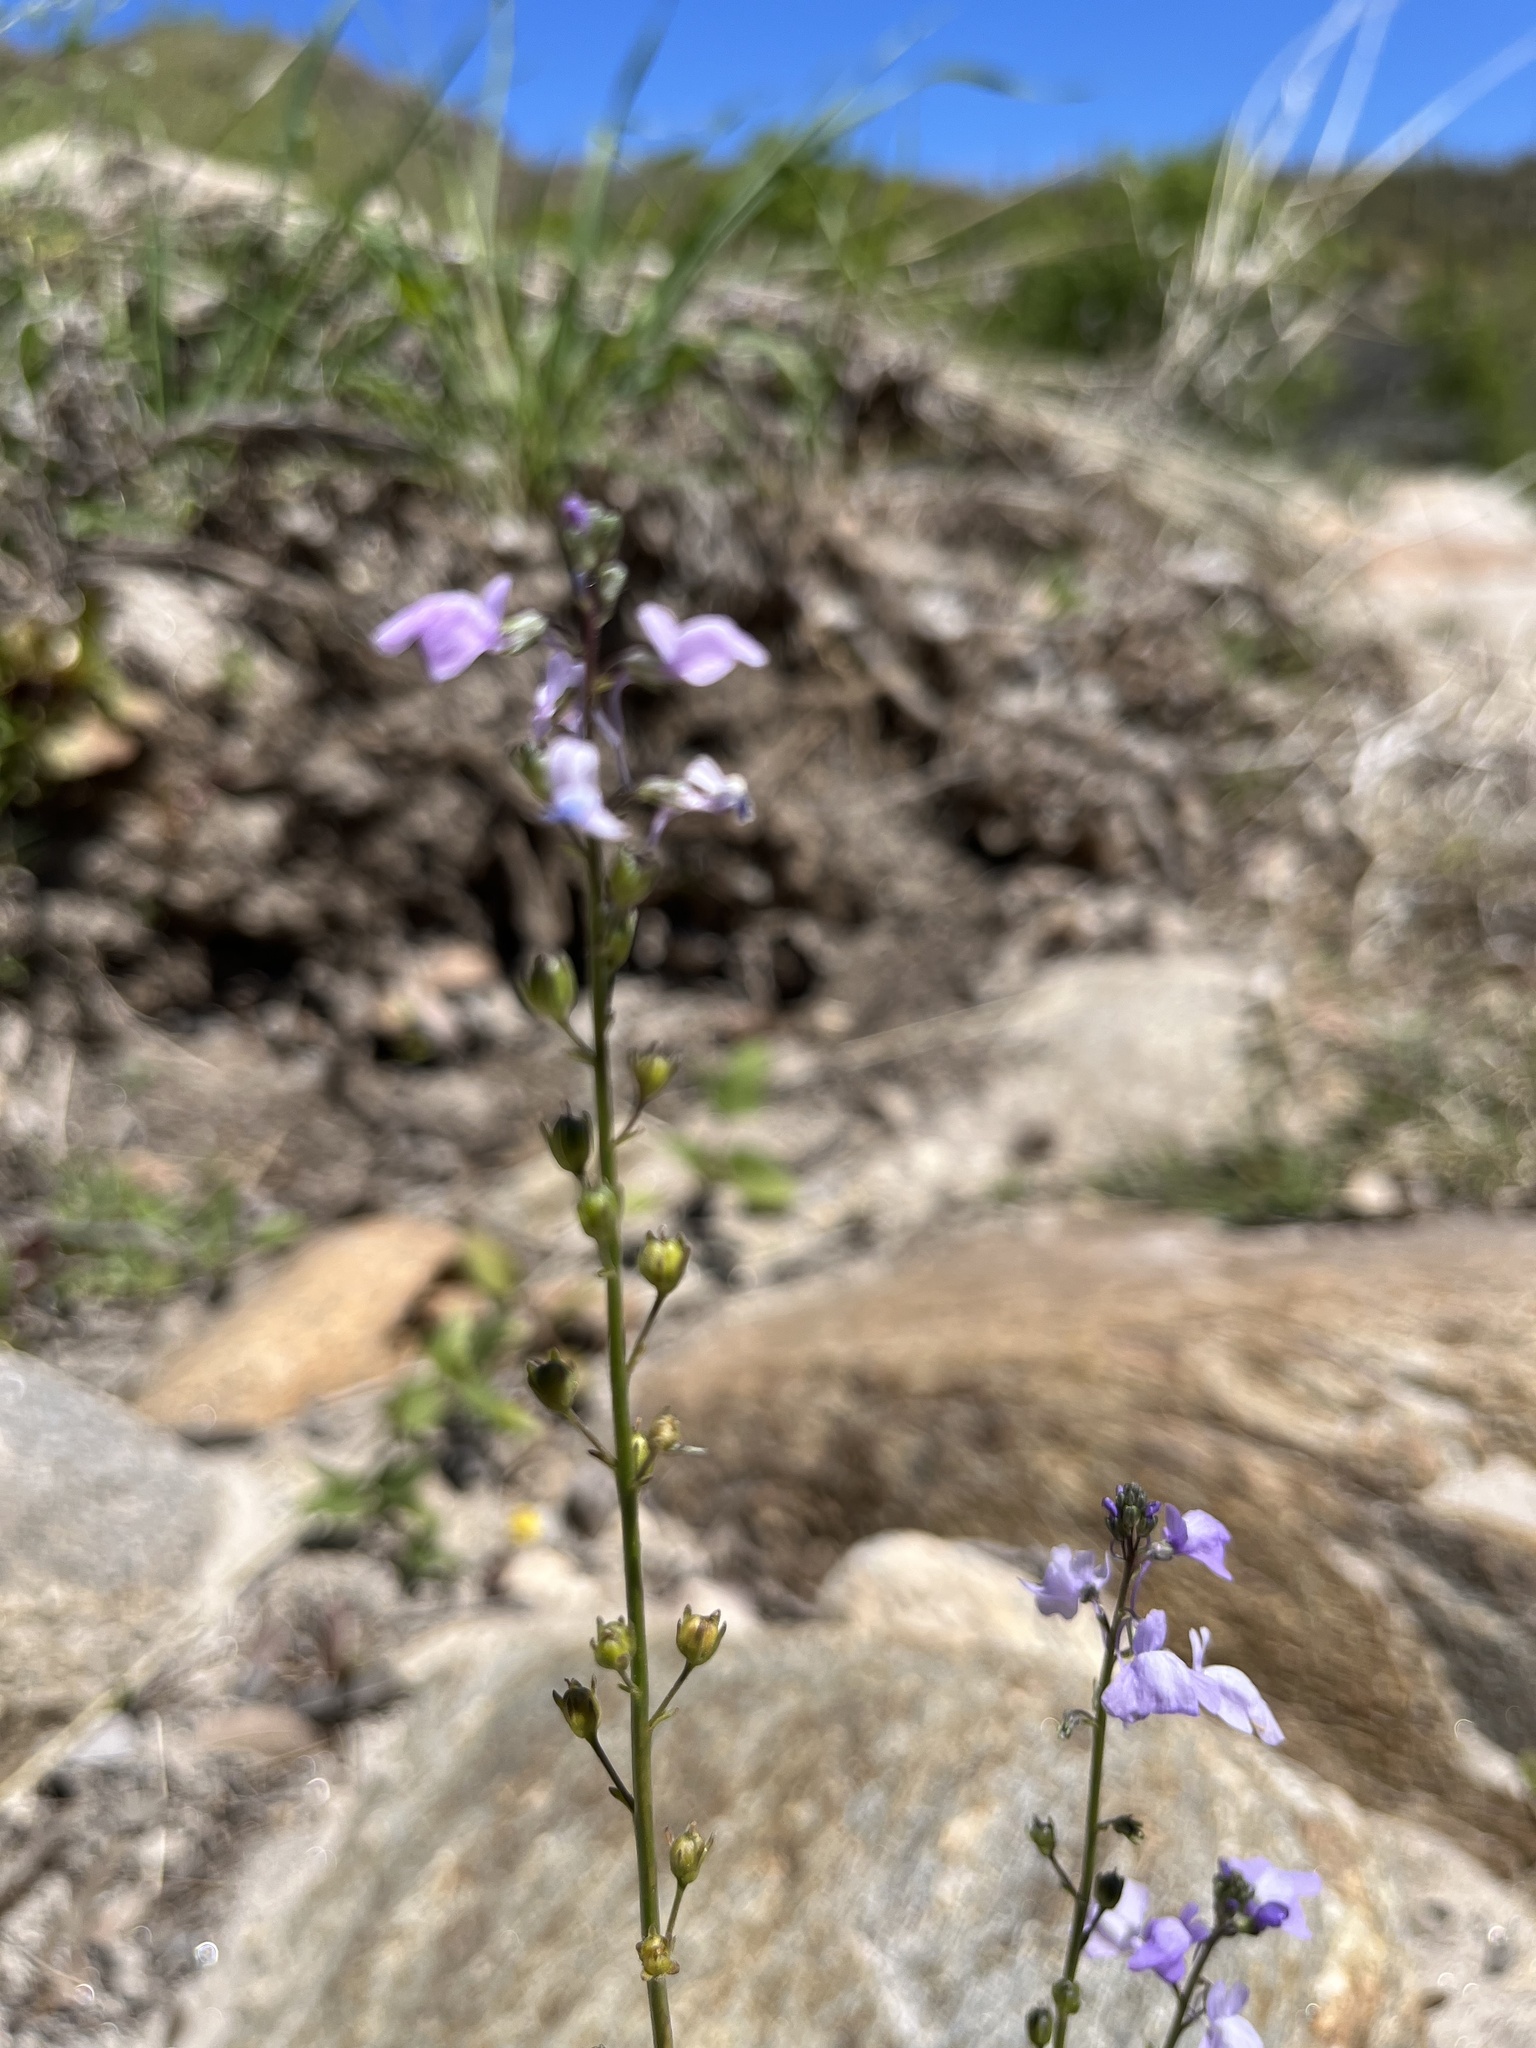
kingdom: Plantae
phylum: Tracheophyta
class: Magnoliopsida
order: Lamiales
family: Plantaginaceae
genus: Nuttallanthus
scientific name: Nuttallanthus canadensis
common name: Blue toadflax
